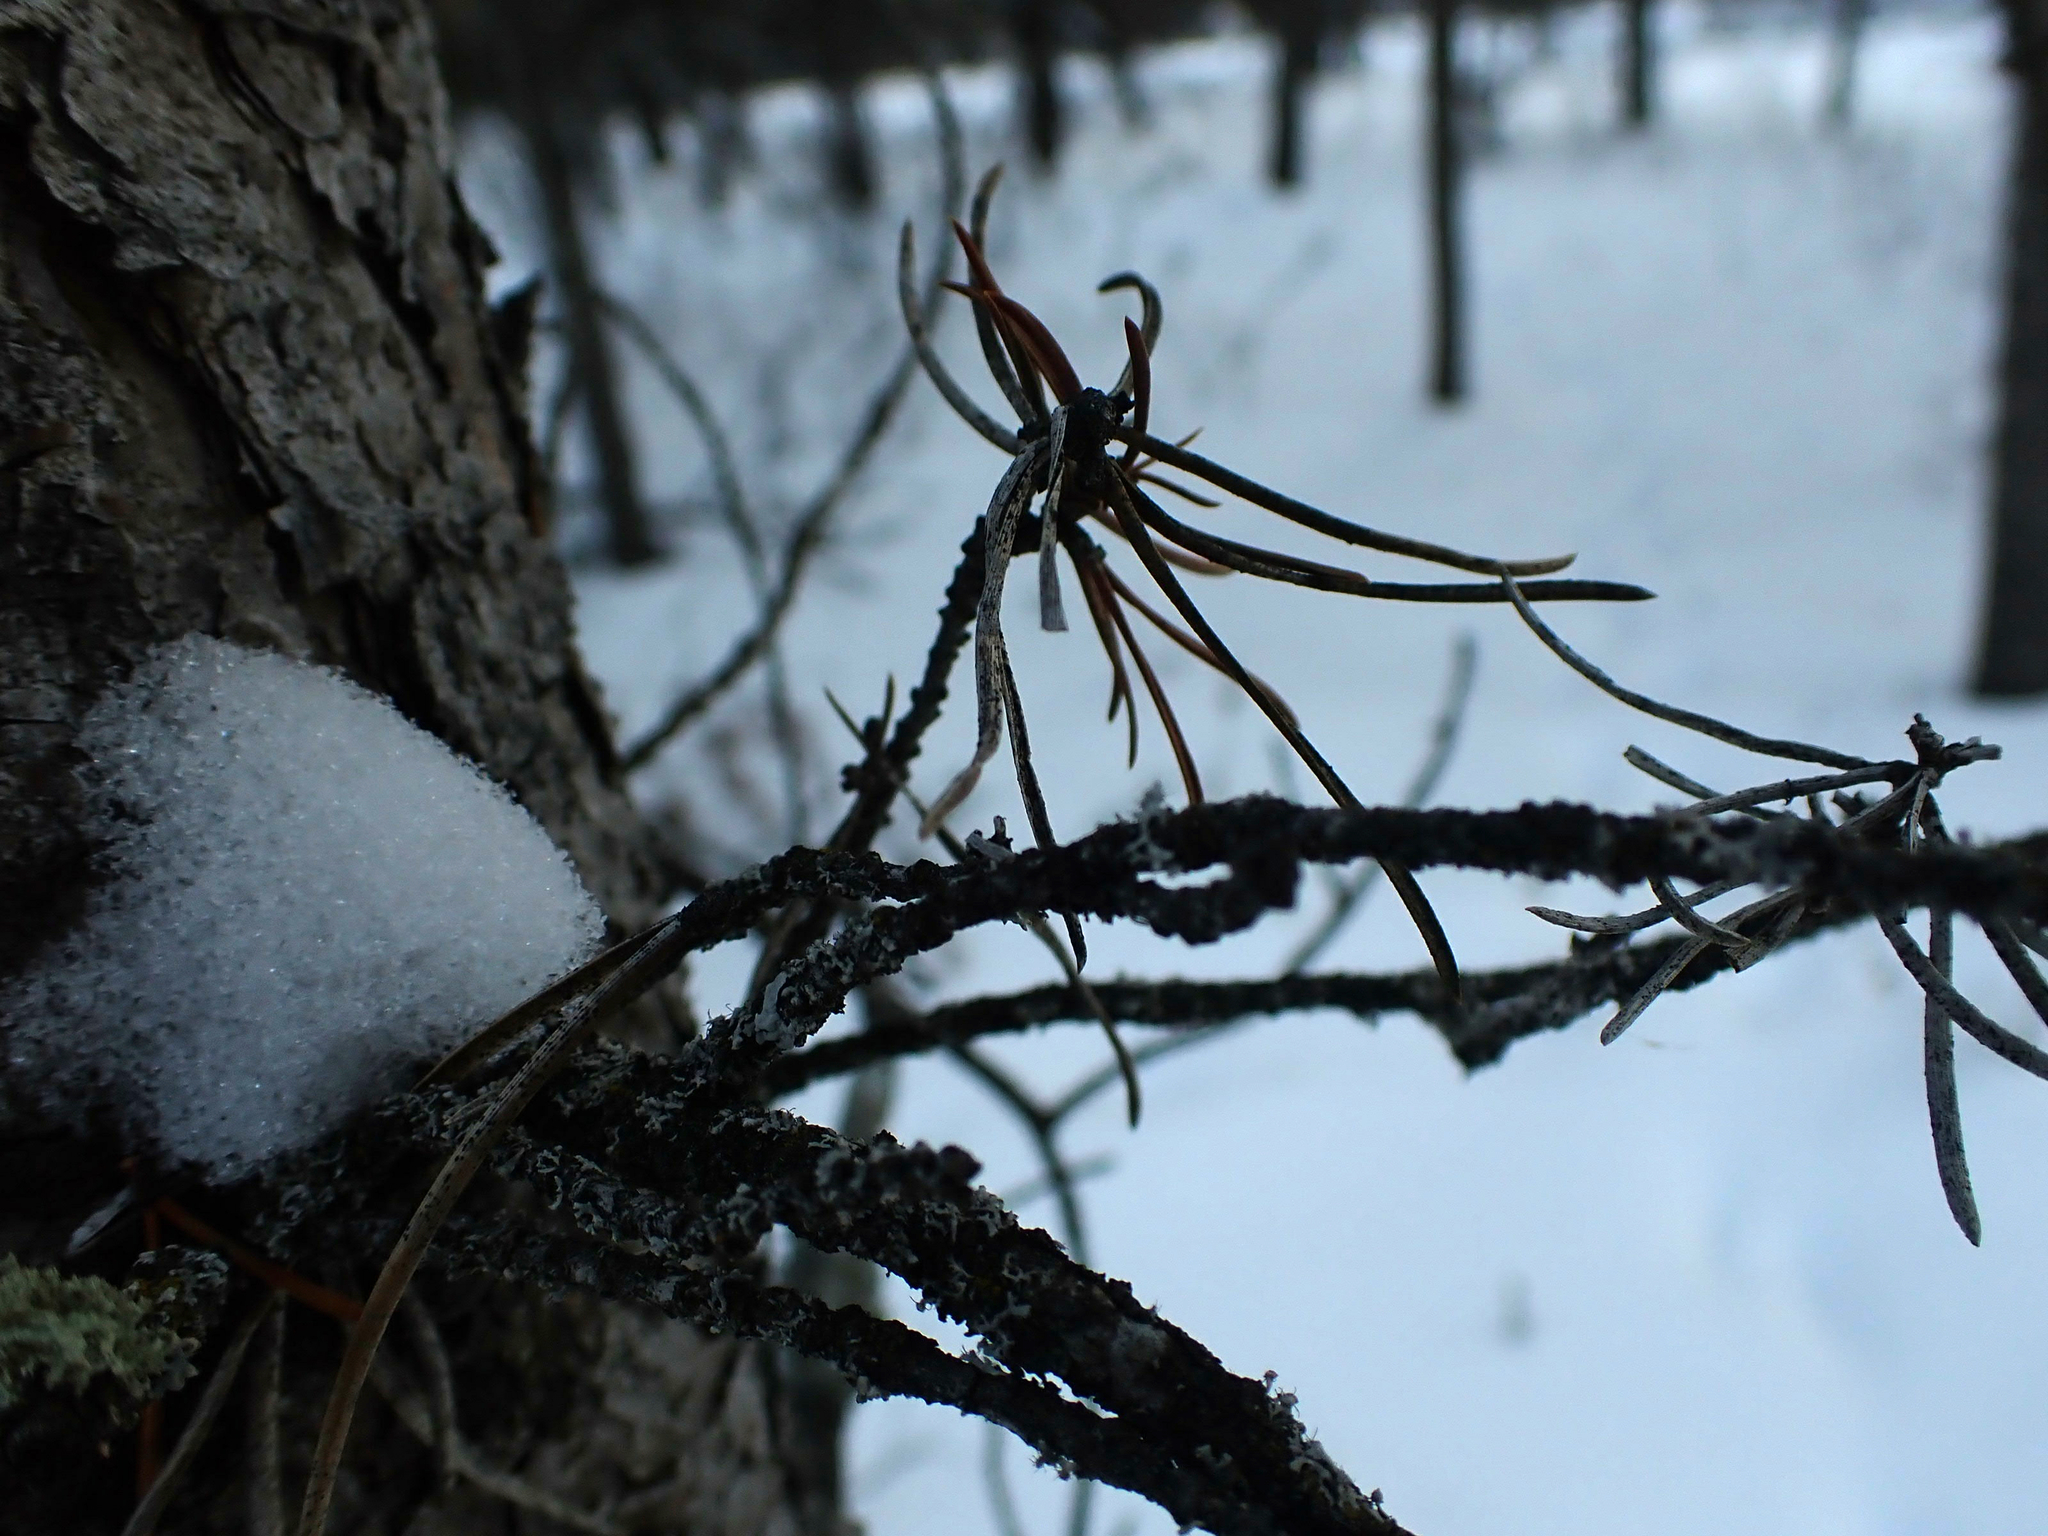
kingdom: Plantae
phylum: Tracheophyta
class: Pinopsida
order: Pinales
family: Pinaceae
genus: Pinus
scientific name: Pinus banksiana
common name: Jack pine
